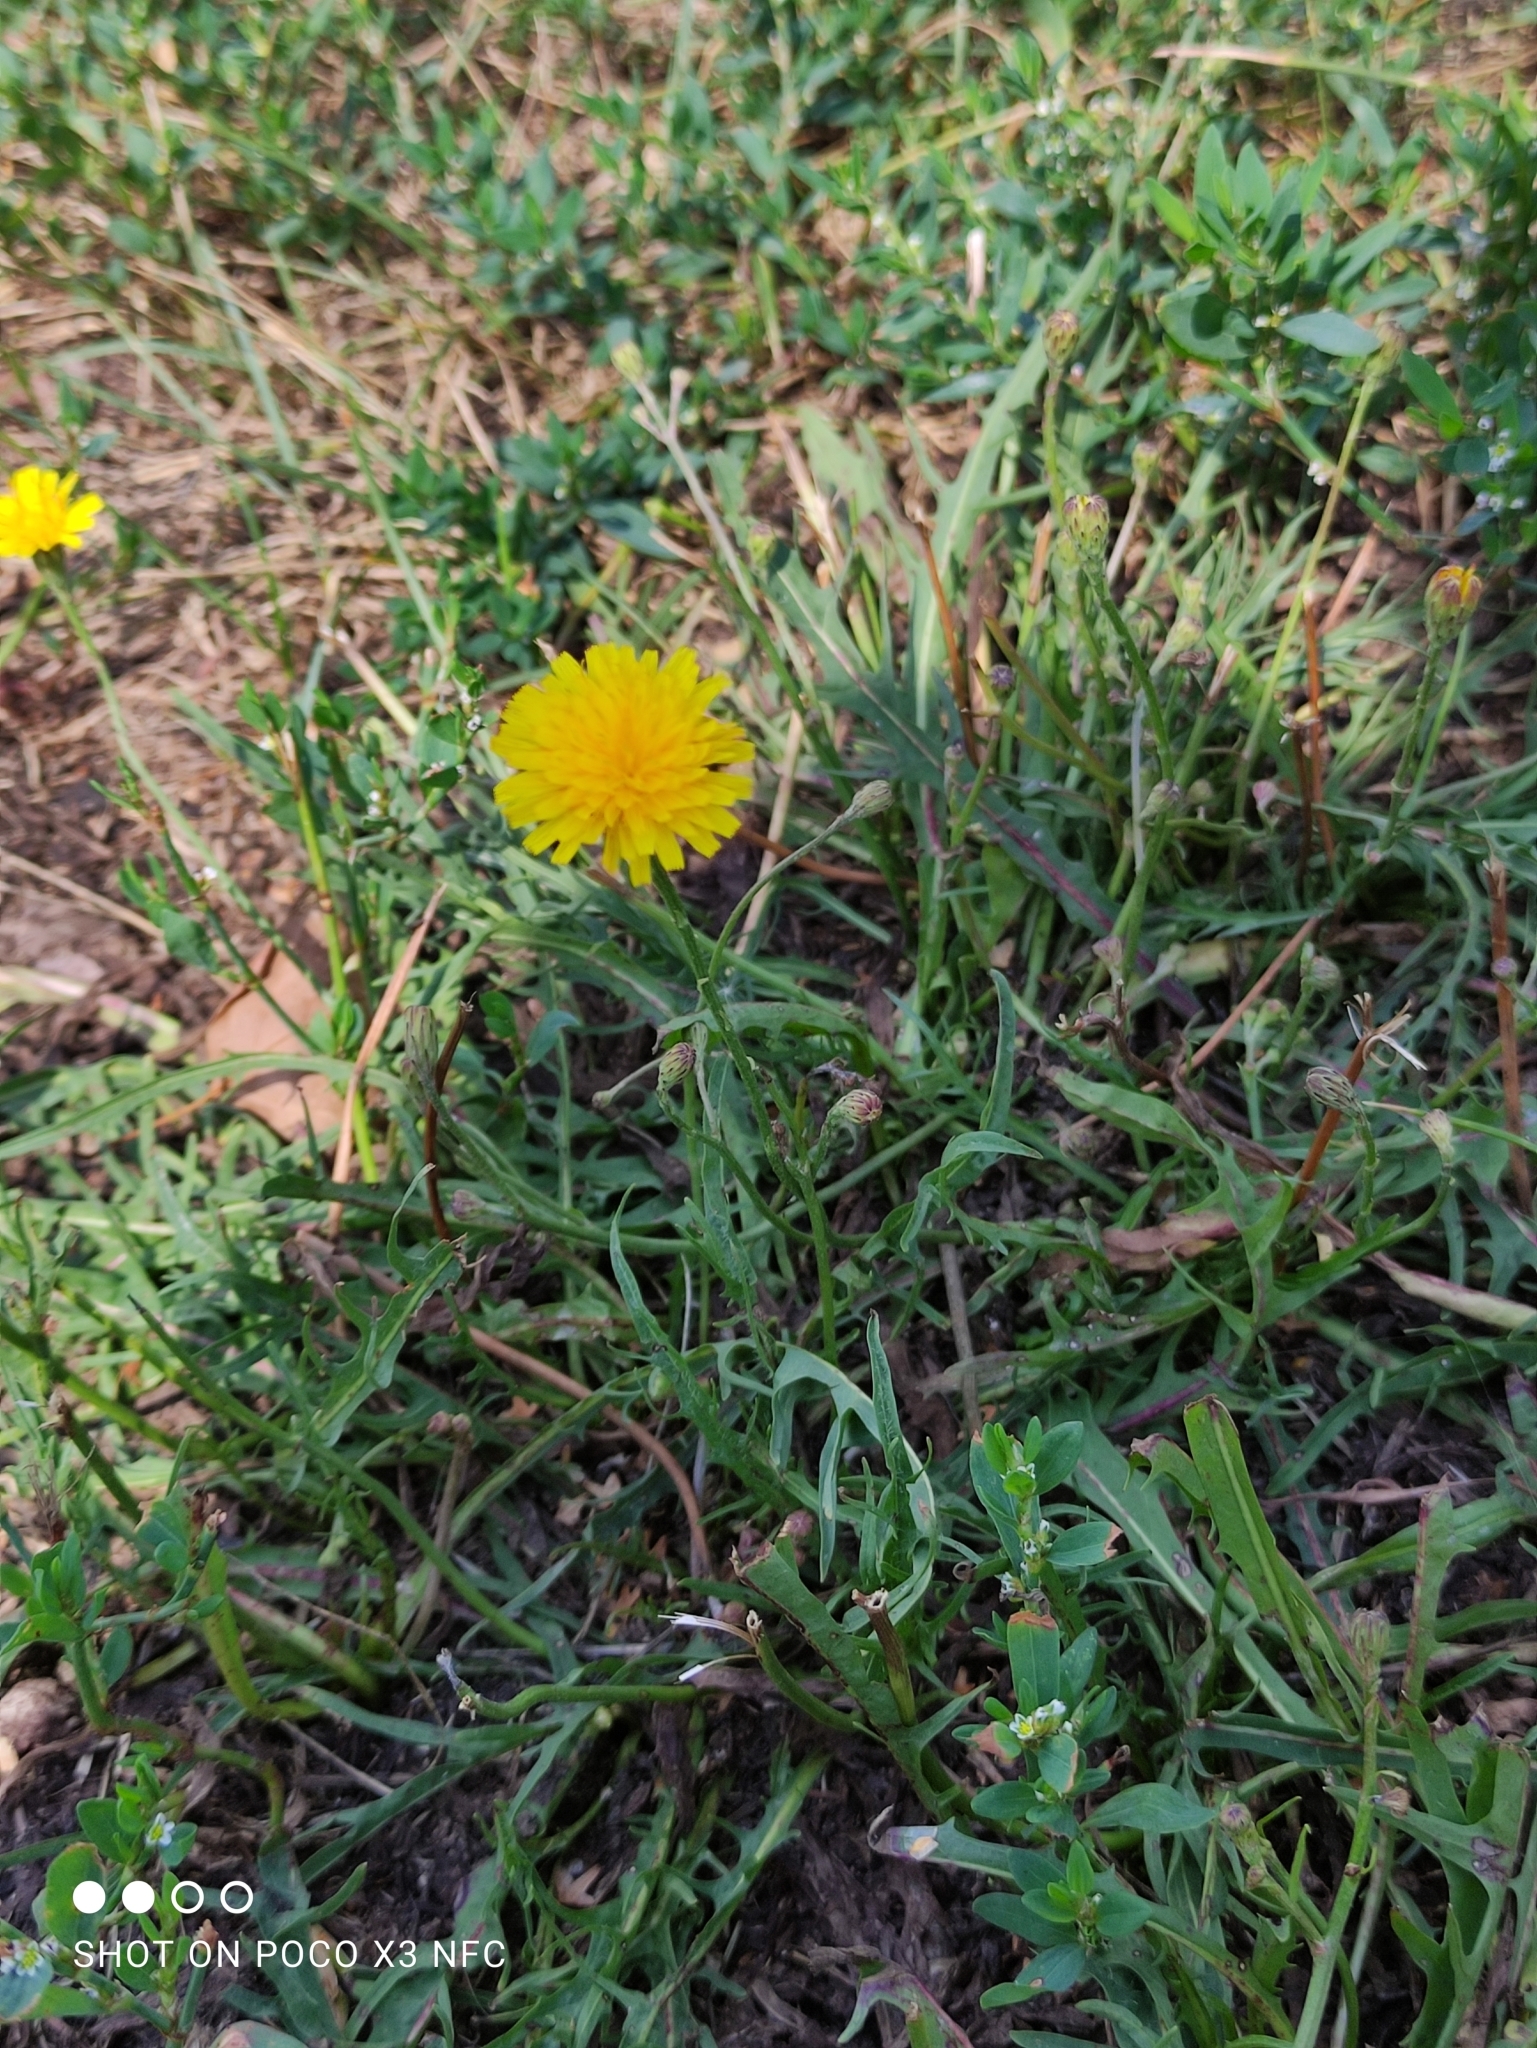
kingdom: Plantae
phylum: Tracheophyta
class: Magnoliopsida
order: Asterales
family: Asteraceae
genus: Scorzoneroides
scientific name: Scorzoneroides autumnalis
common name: Autumn hawkbit
